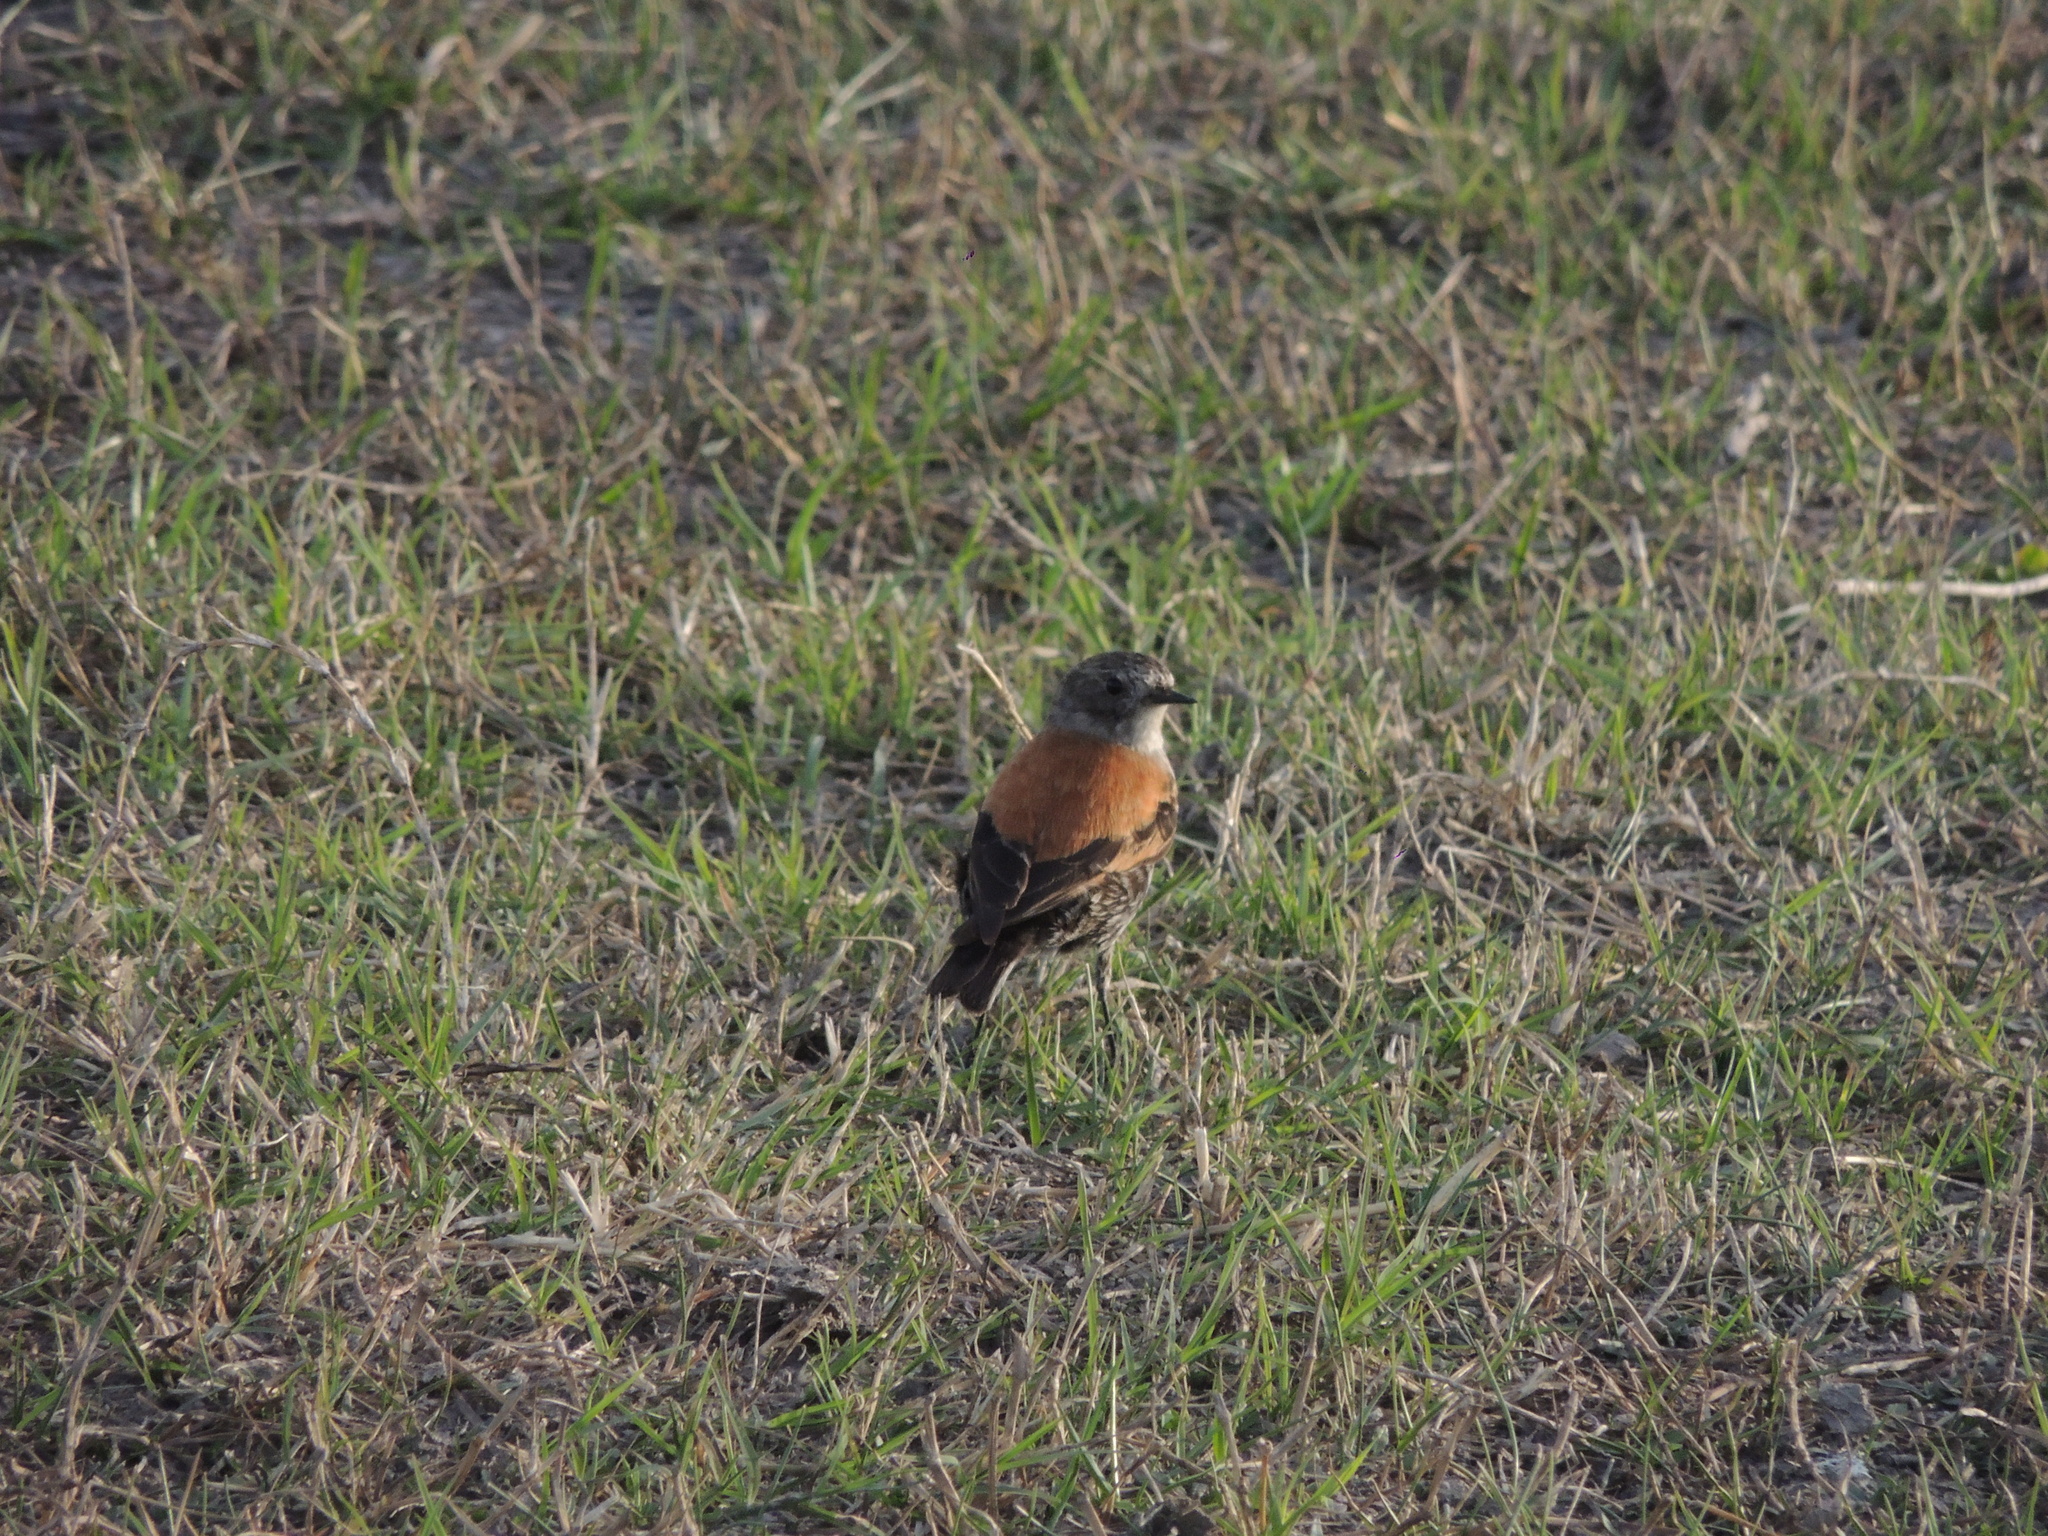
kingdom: Animalia
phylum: Chordata
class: Aves
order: Passeriformes
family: Tyrannidae
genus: Lessonia
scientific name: Lessonia rufa
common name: Austral negrito
